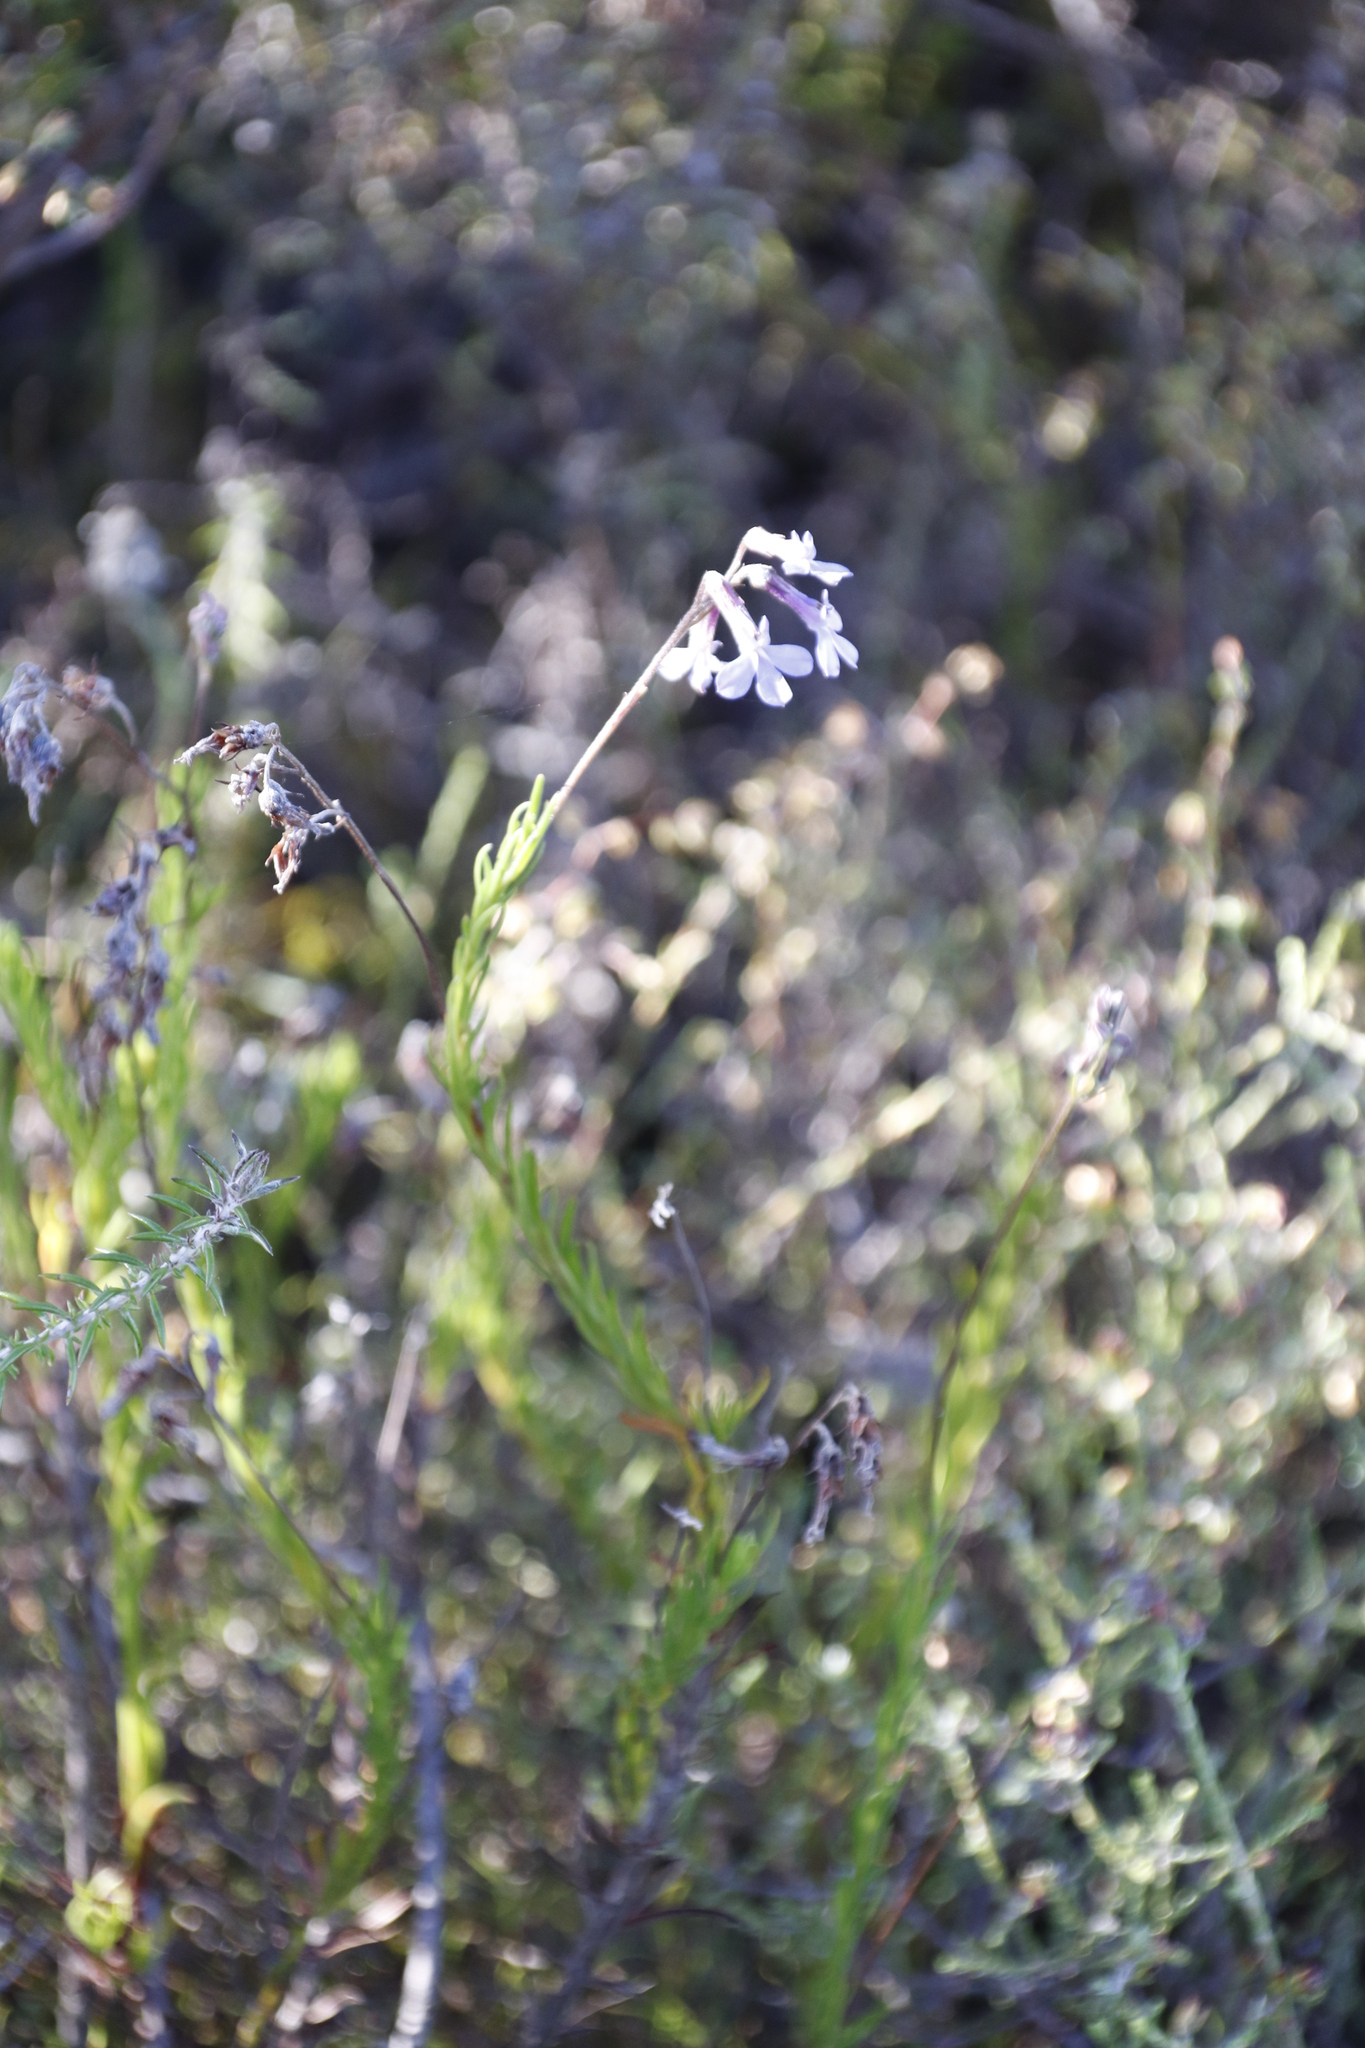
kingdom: Plantae
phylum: Tracheophyta
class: Magnoliopsida
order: Asterales
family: Campanulaceae
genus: Lobelia
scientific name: Lobelia pinifolia
